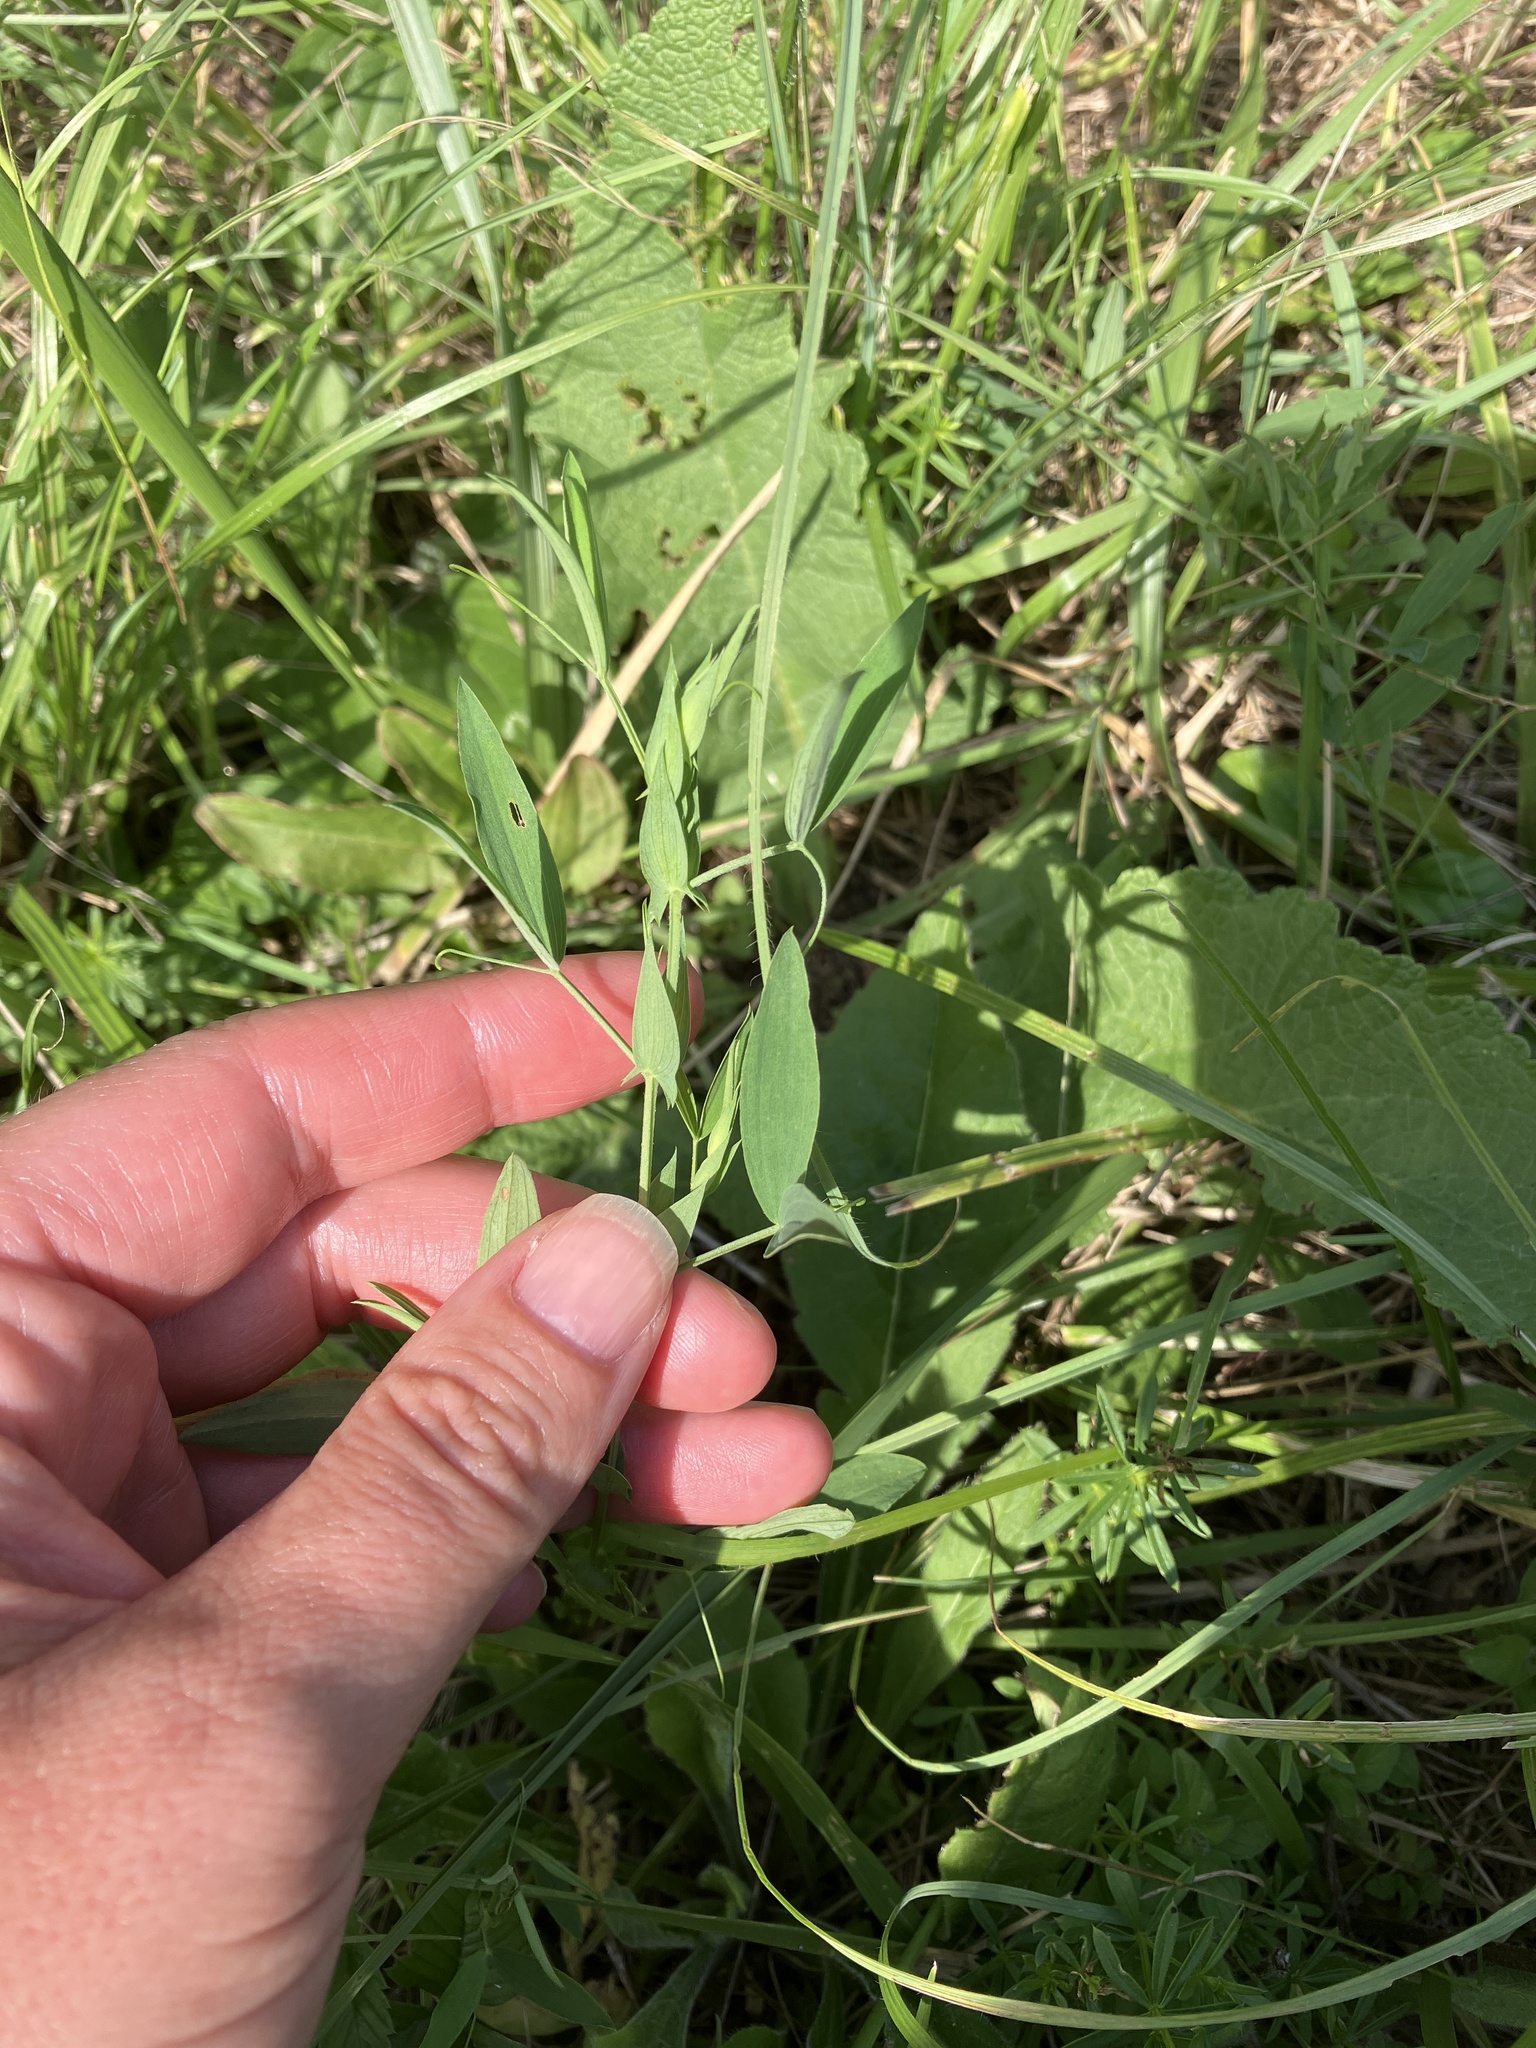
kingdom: Plantae
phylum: Tracheophyta
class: Magnoliopsida
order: Fabales
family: Fabaceae
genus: Lathyrus
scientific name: Lathyrus pratensis
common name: Meadow vetchling
